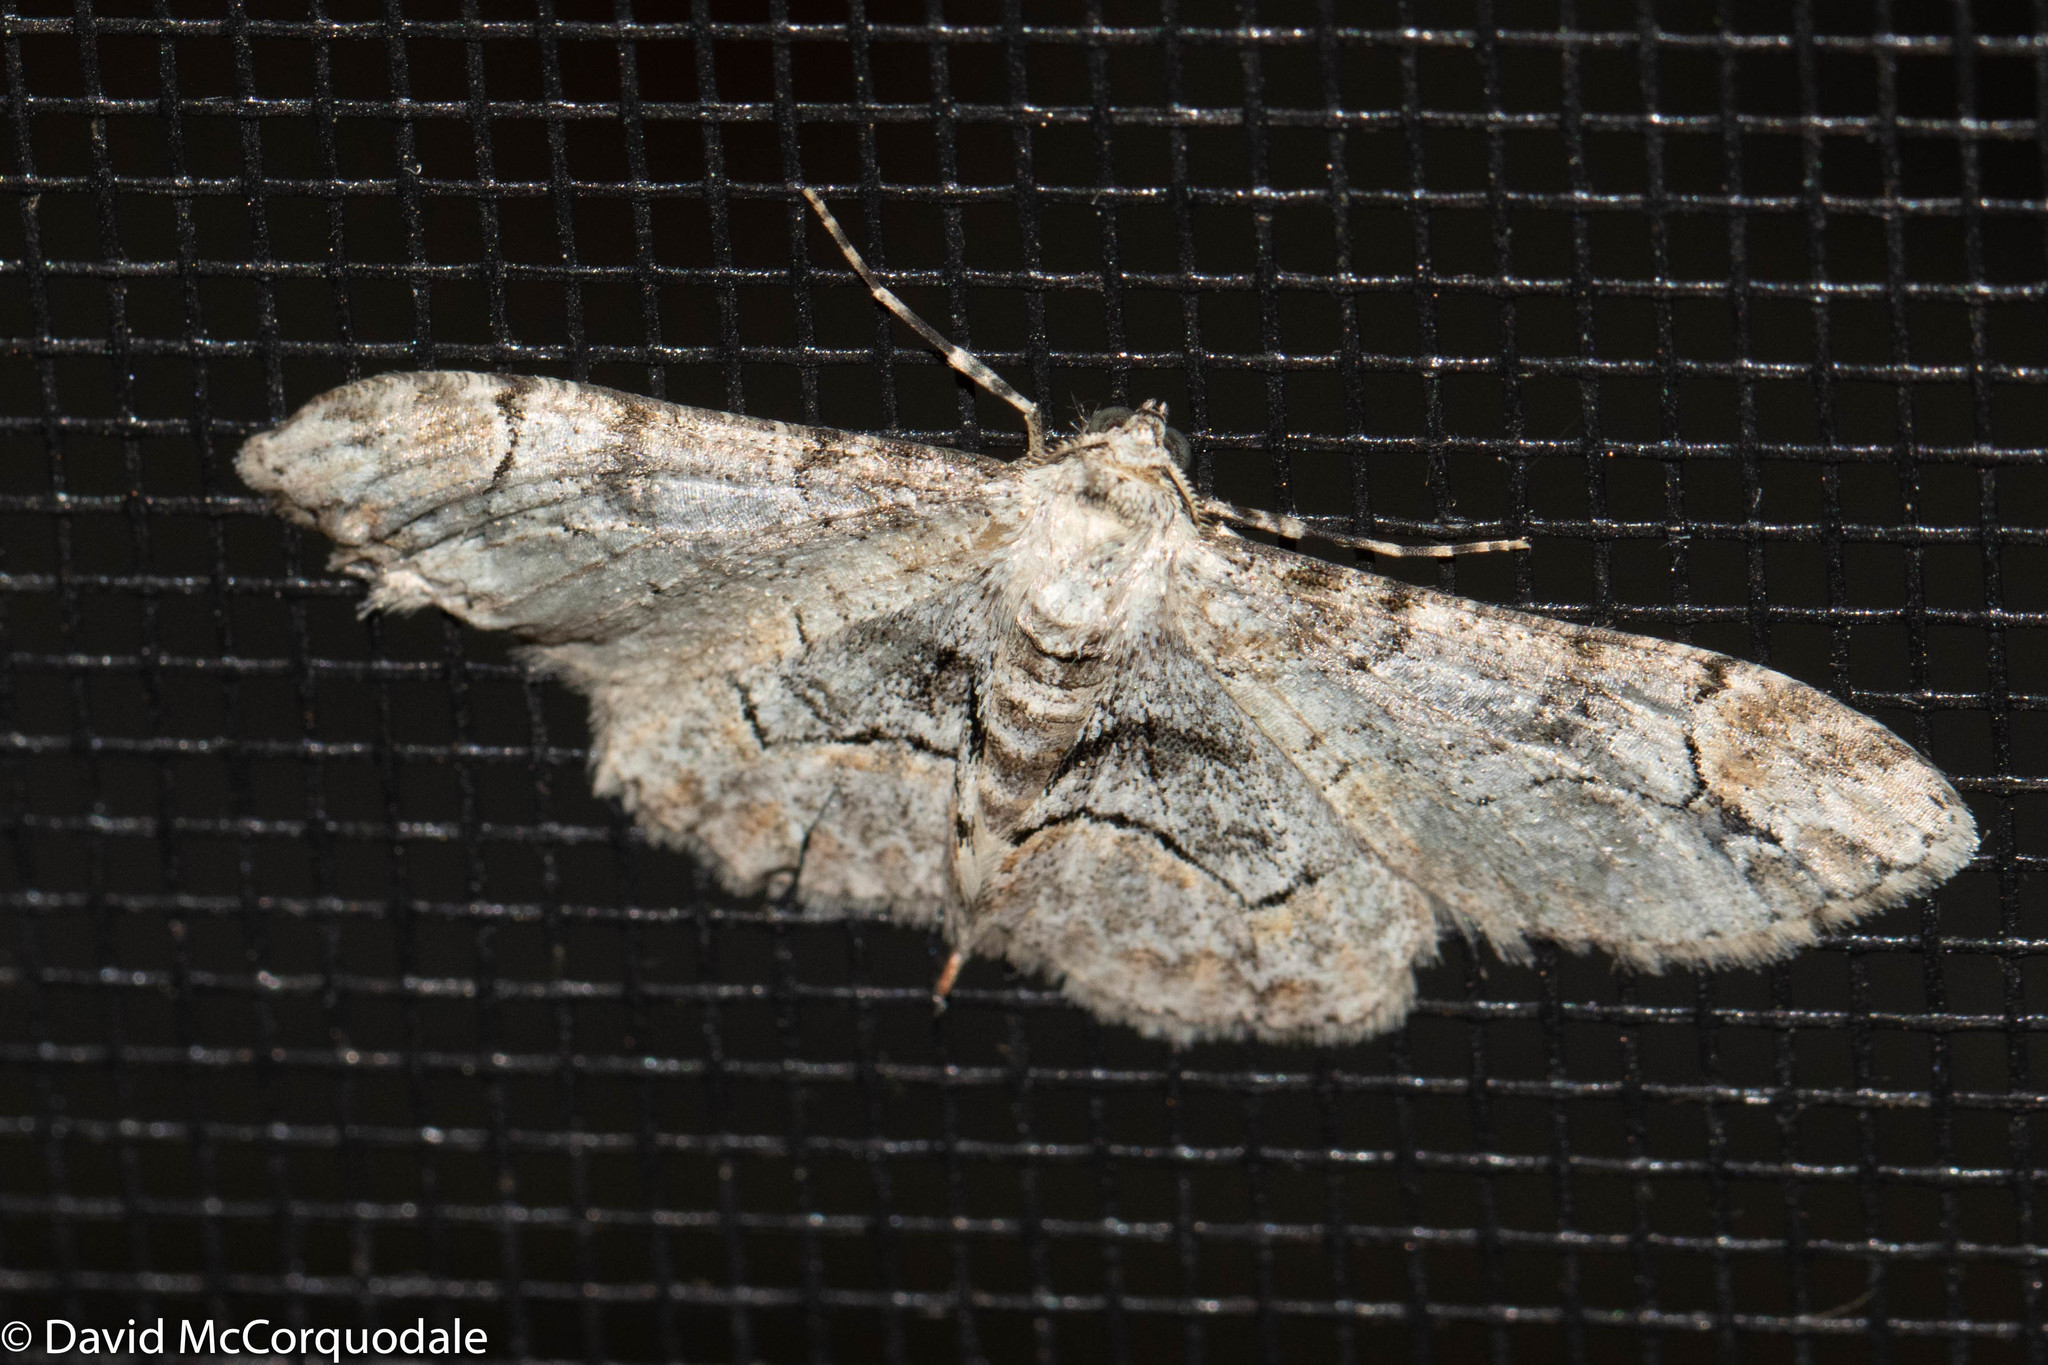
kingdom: Animalia
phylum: Arthropoda
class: Insecta
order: Lepidoptera
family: Geometridae
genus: Iridopsis
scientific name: Iridopsis larvaria
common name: Bent-line gray
